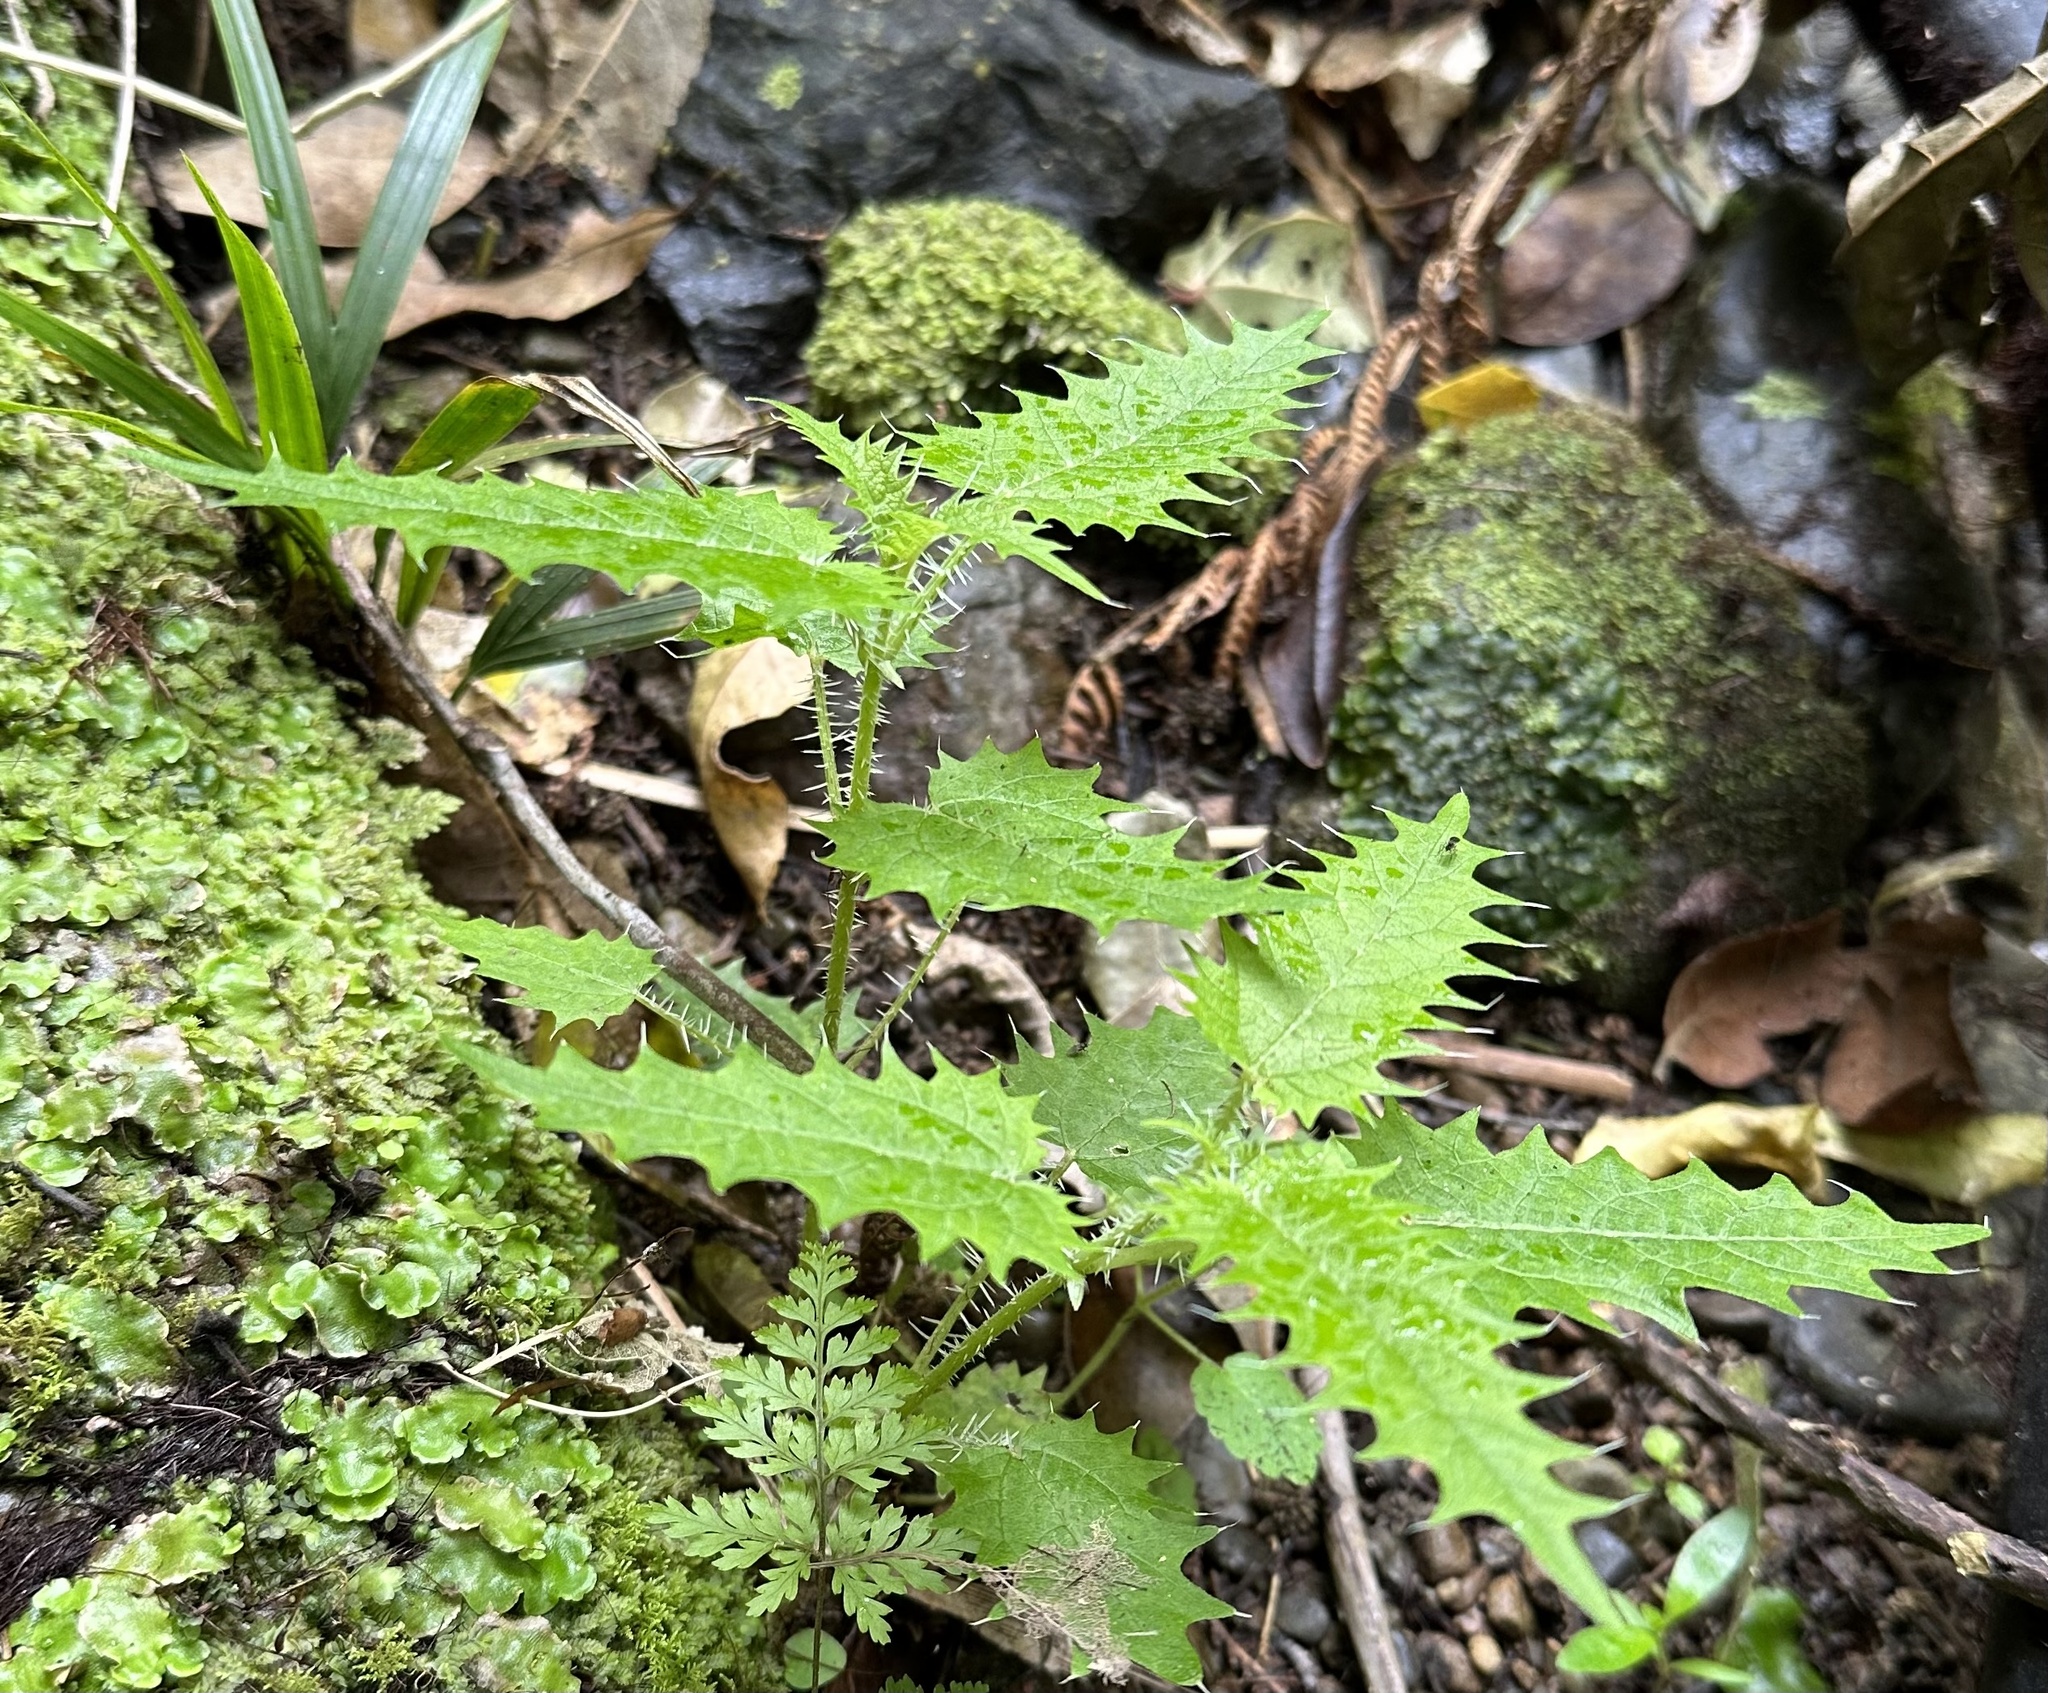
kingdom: Plantae
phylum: Tracheophyta
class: Magnoliopsida
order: Rosales
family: Urticaceae
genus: Urtica
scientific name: Urtica ferox
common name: Tree nettle
